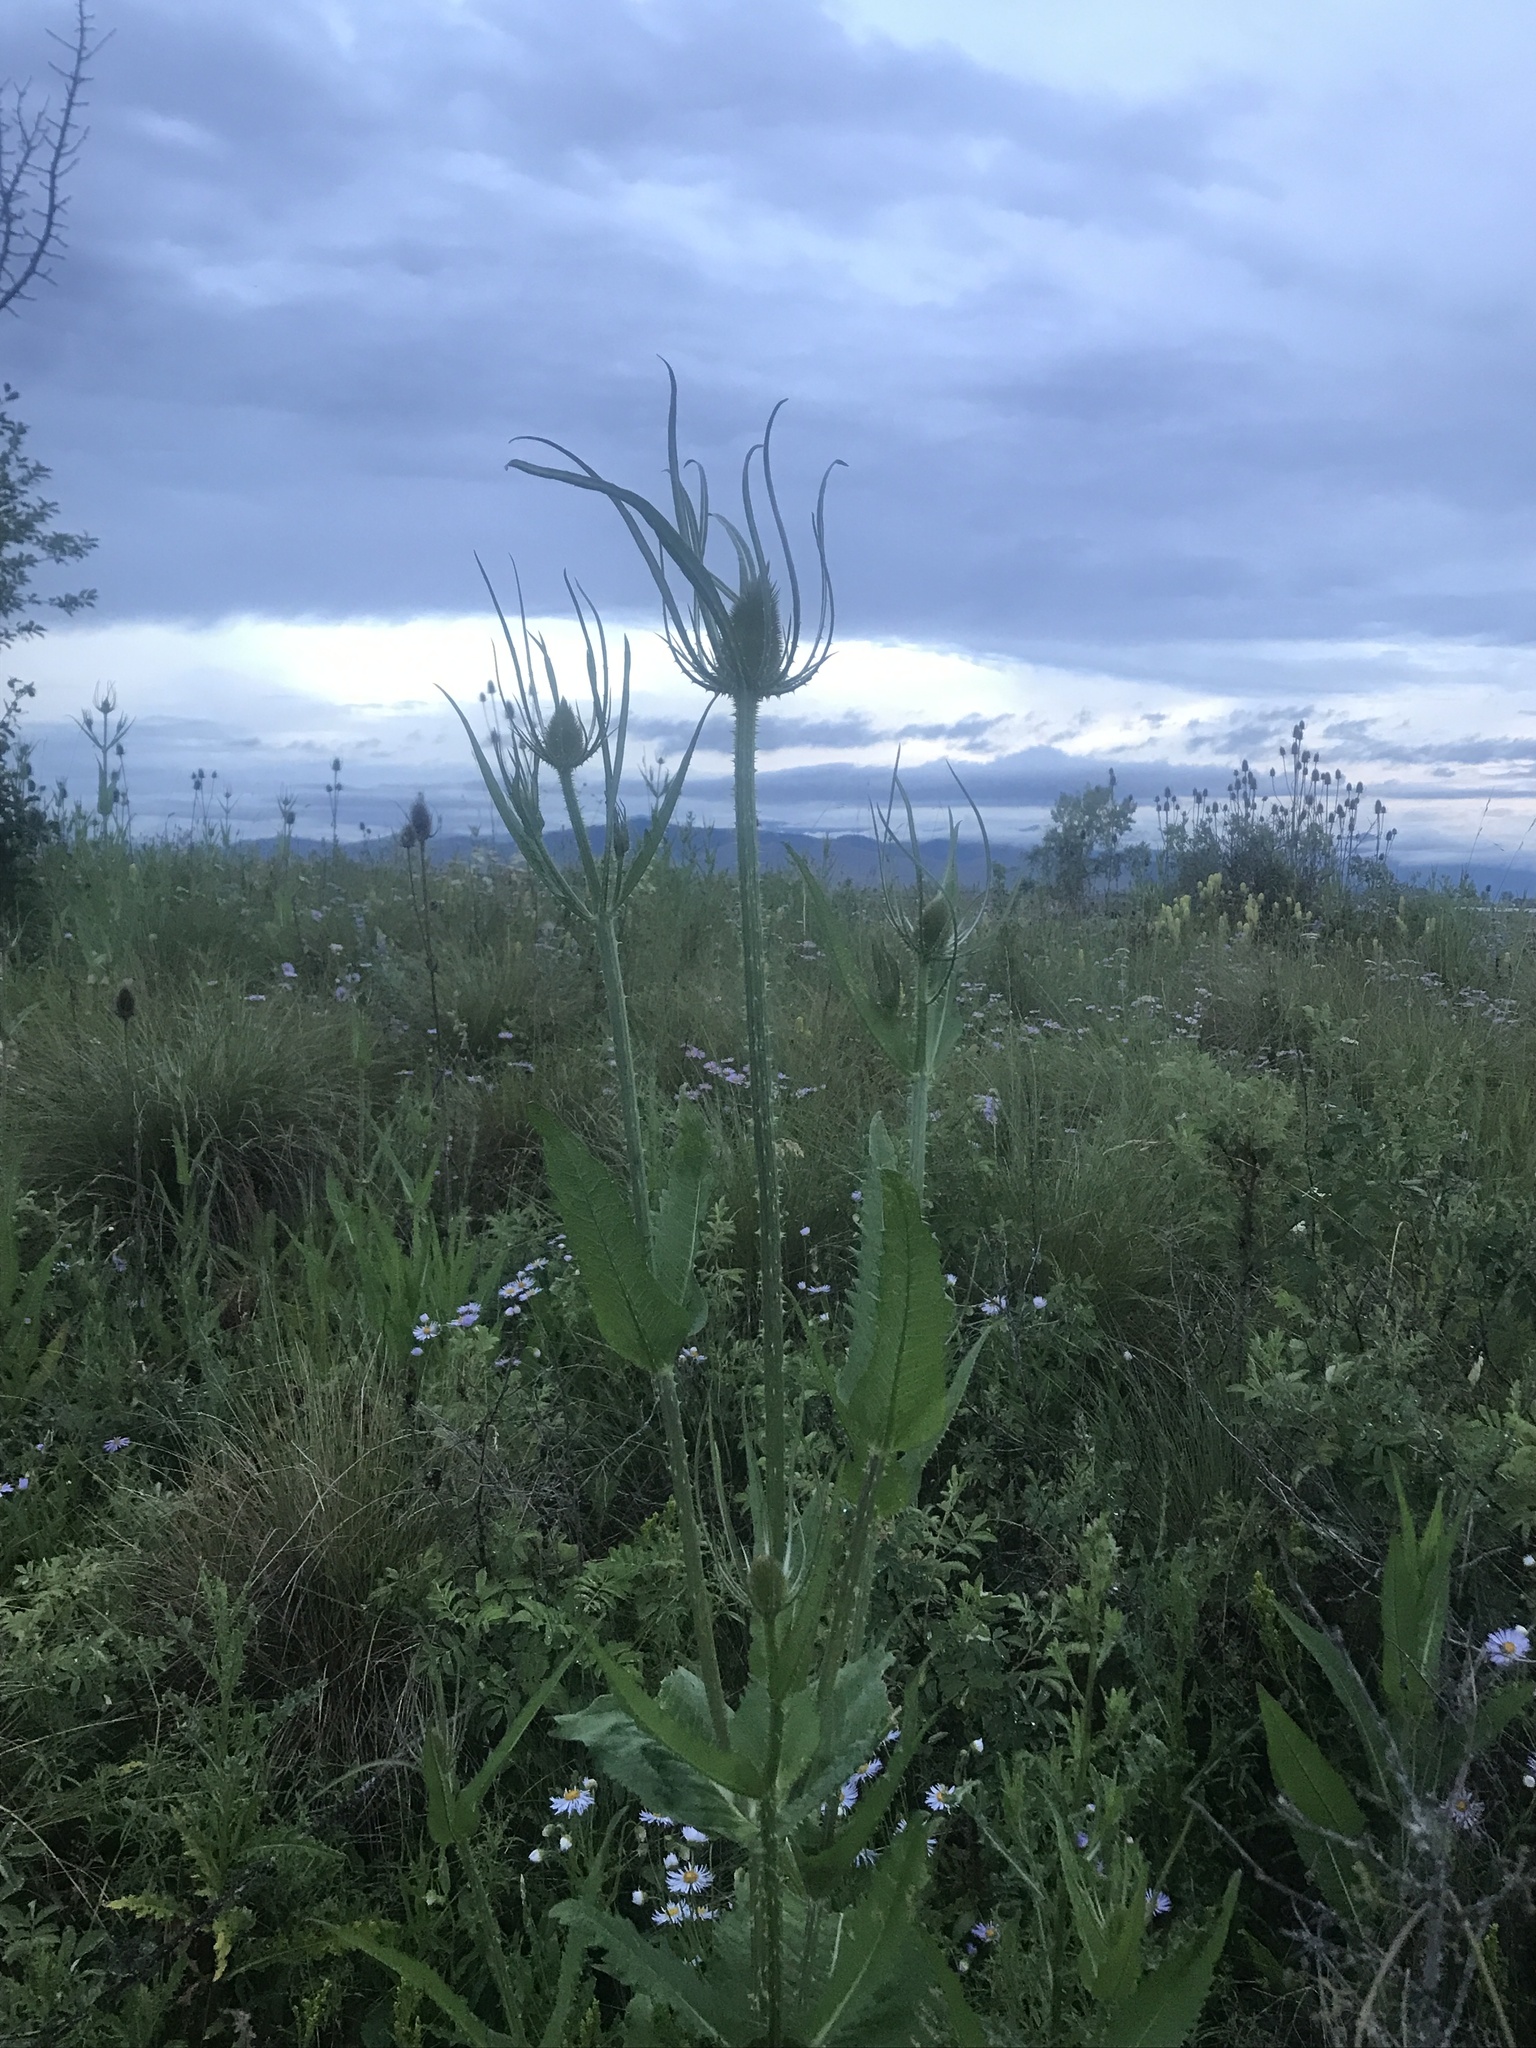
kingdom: Plantae
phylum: Tracheophyta
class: Magnoliopsida
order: Dipsacales
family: Caprifoliaceae
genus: Dipsacus
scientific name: Dipsacus fullonum
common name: Teasel
